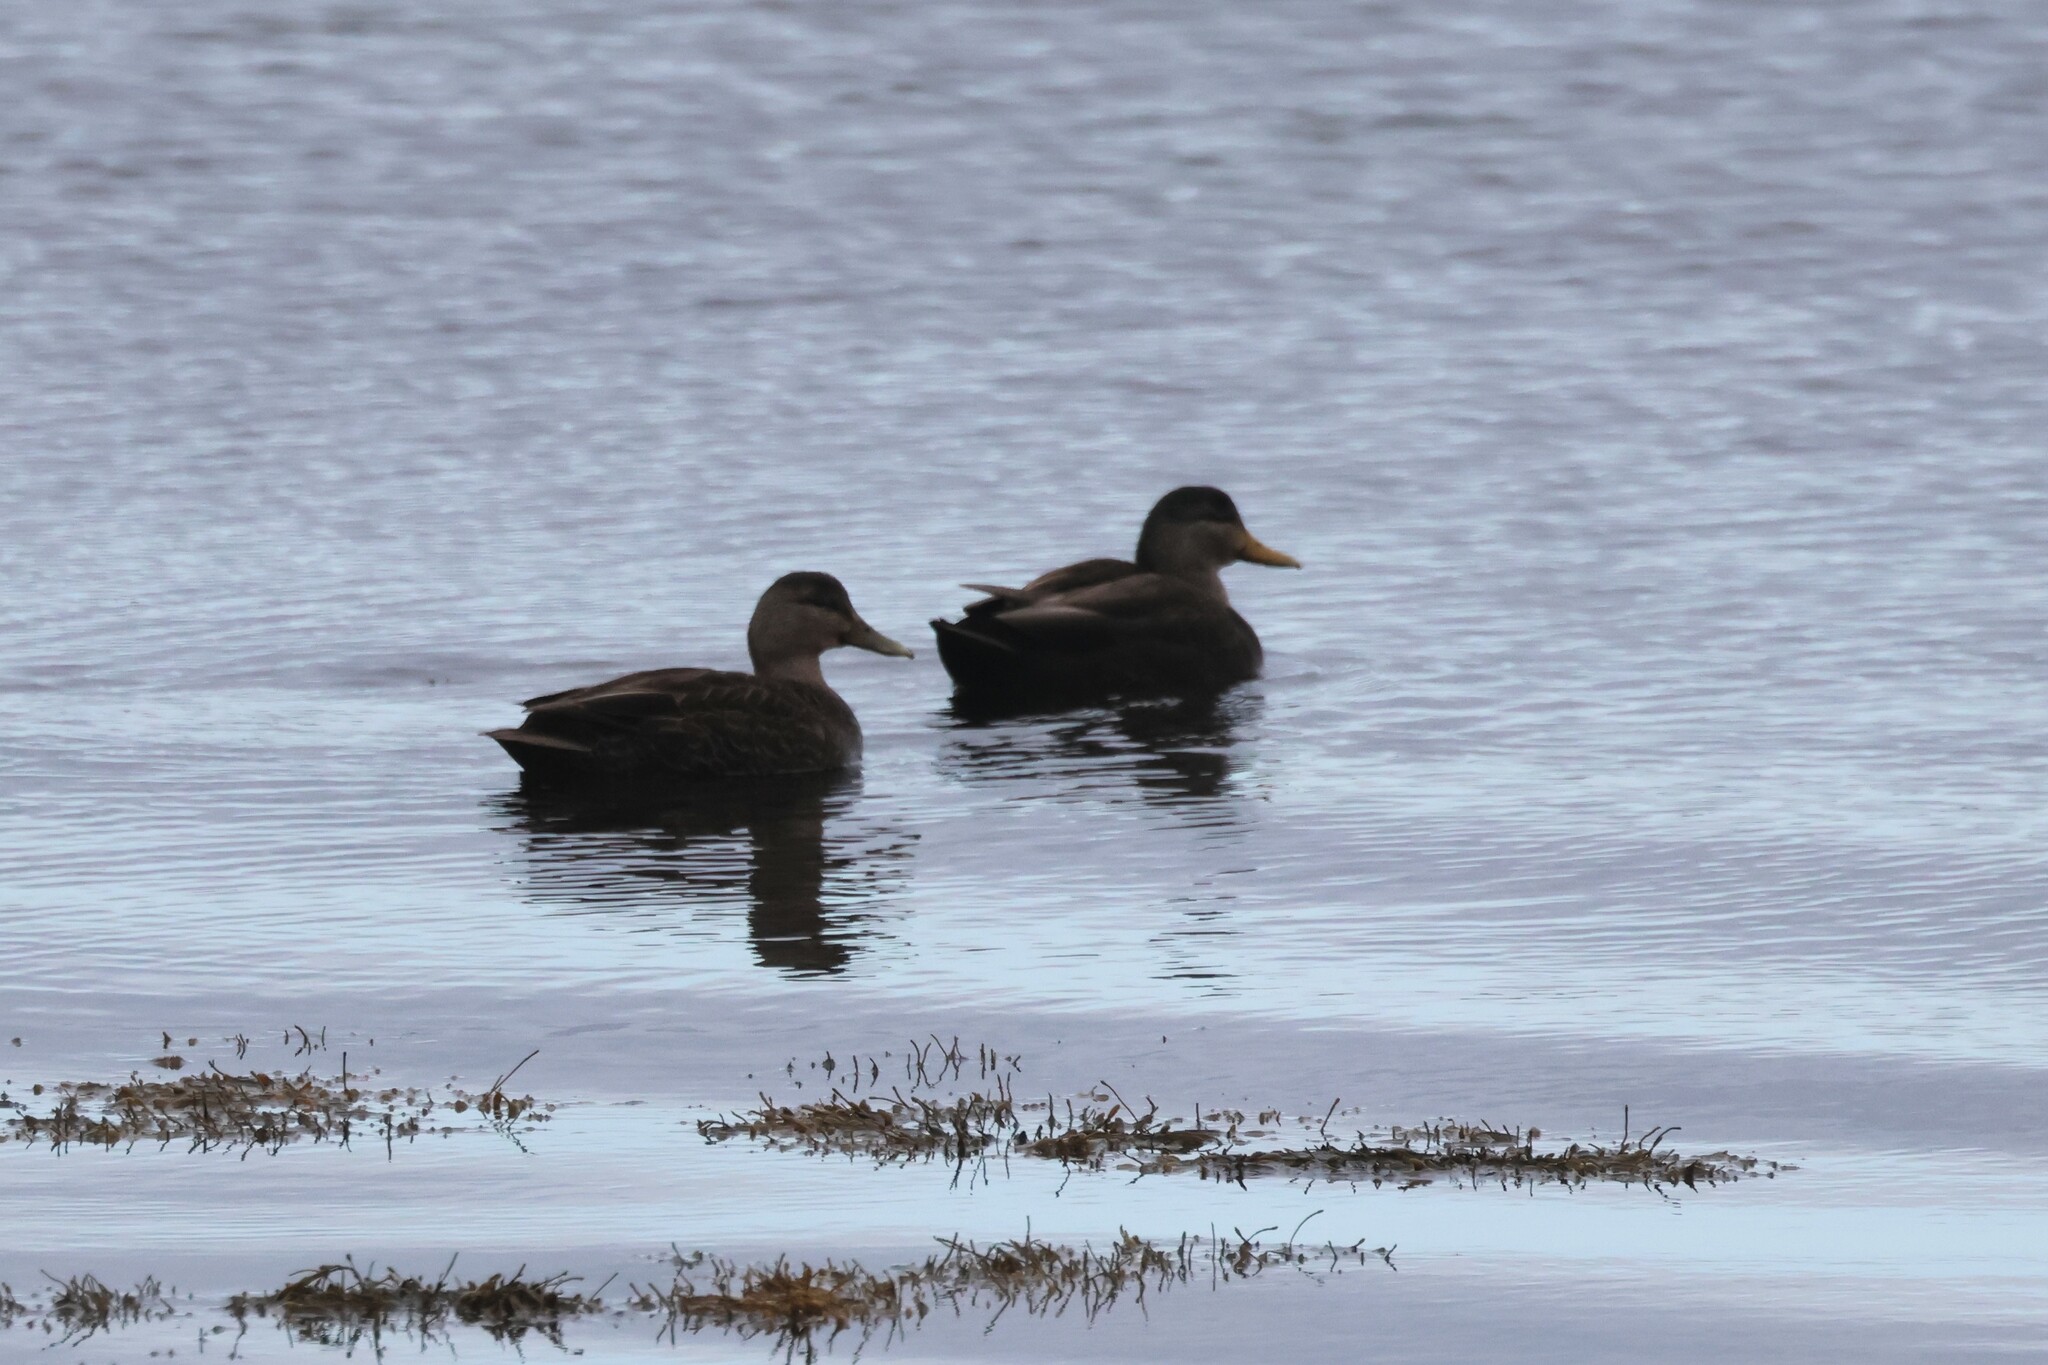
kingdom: Animalia
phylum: Chordata
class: Aves
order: Anseriformes
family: Anatidae
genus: Anas
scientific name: Anas rubripes
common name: American black duck
